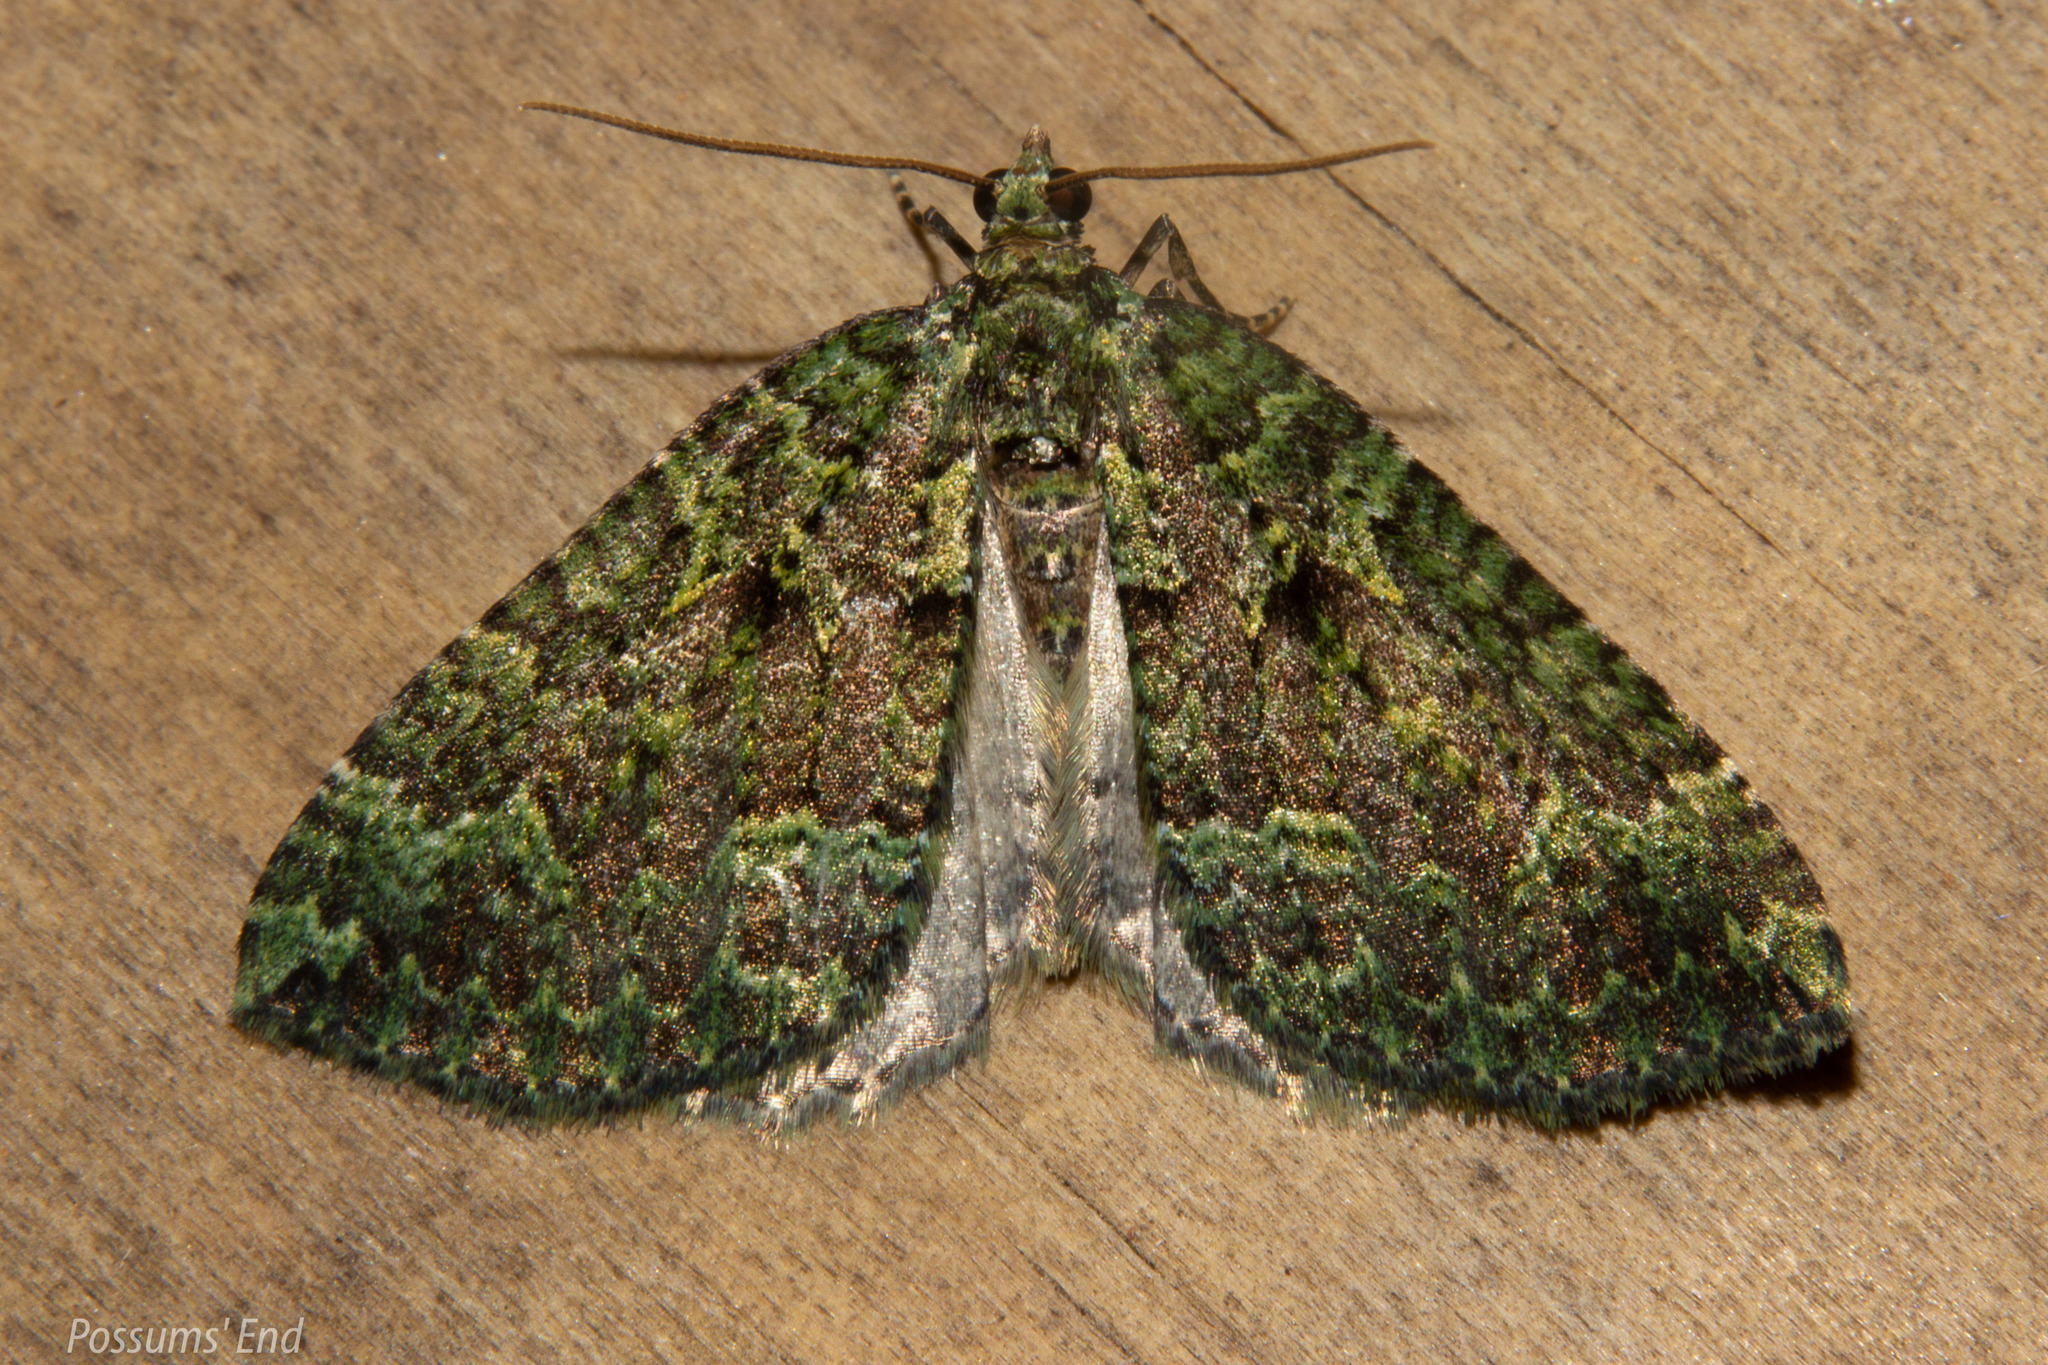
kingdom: Animalia
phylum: Arthropoda
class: Insecta
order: Lepidoptera
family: Geometridae
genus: Austrocidaria
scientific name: Austrocidaria callichlora
